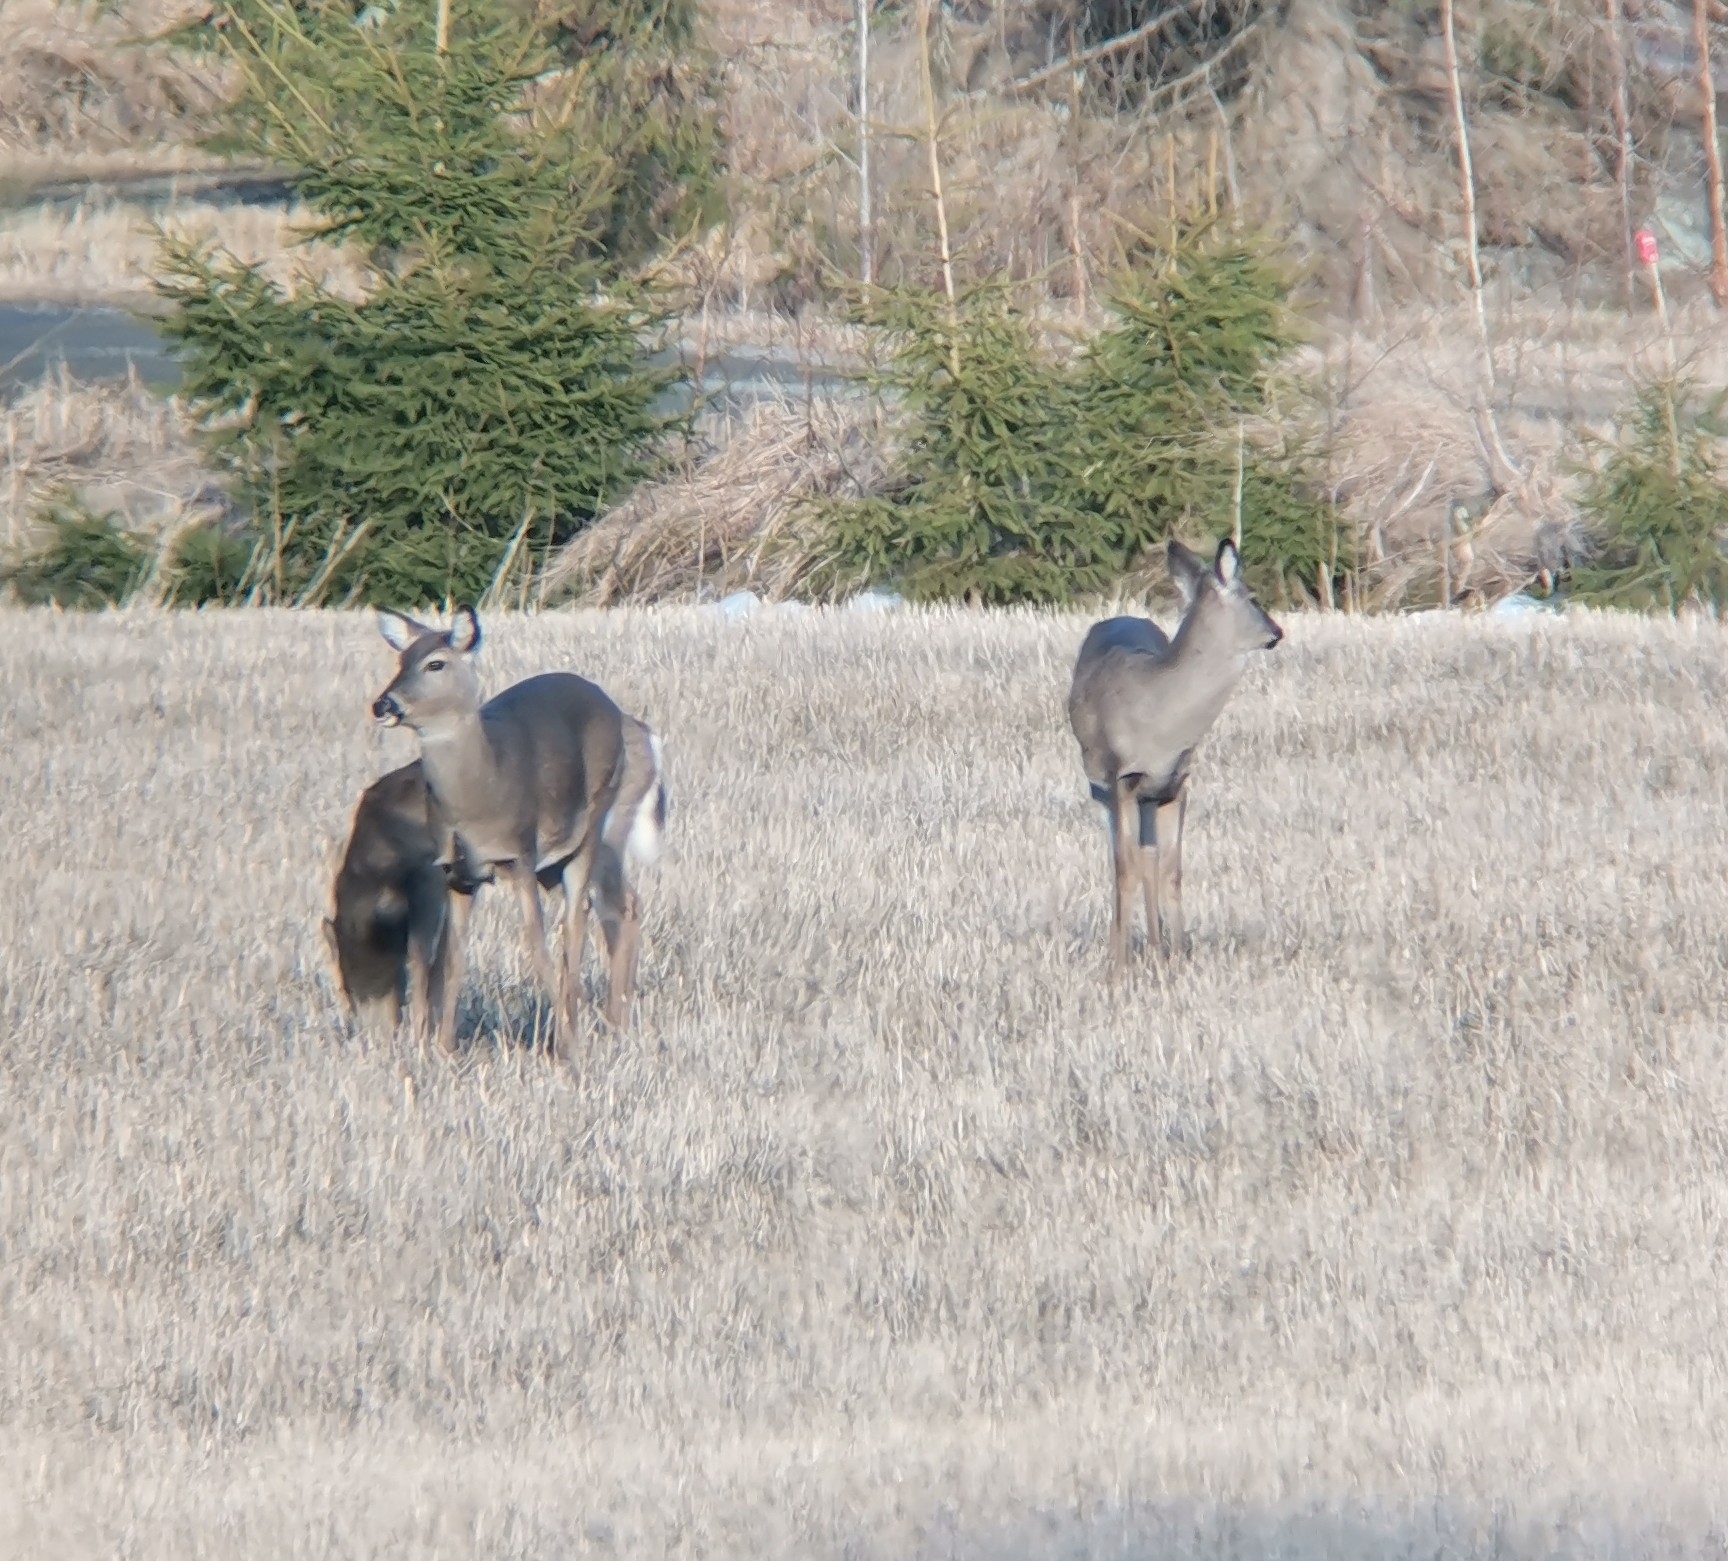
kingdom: Animalia
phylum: Chordata
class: Mammalia
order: Artiodactyla
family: Cervidae
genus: Odocoileus
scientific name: Odocoileus virginianus
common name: White-tailed deer
